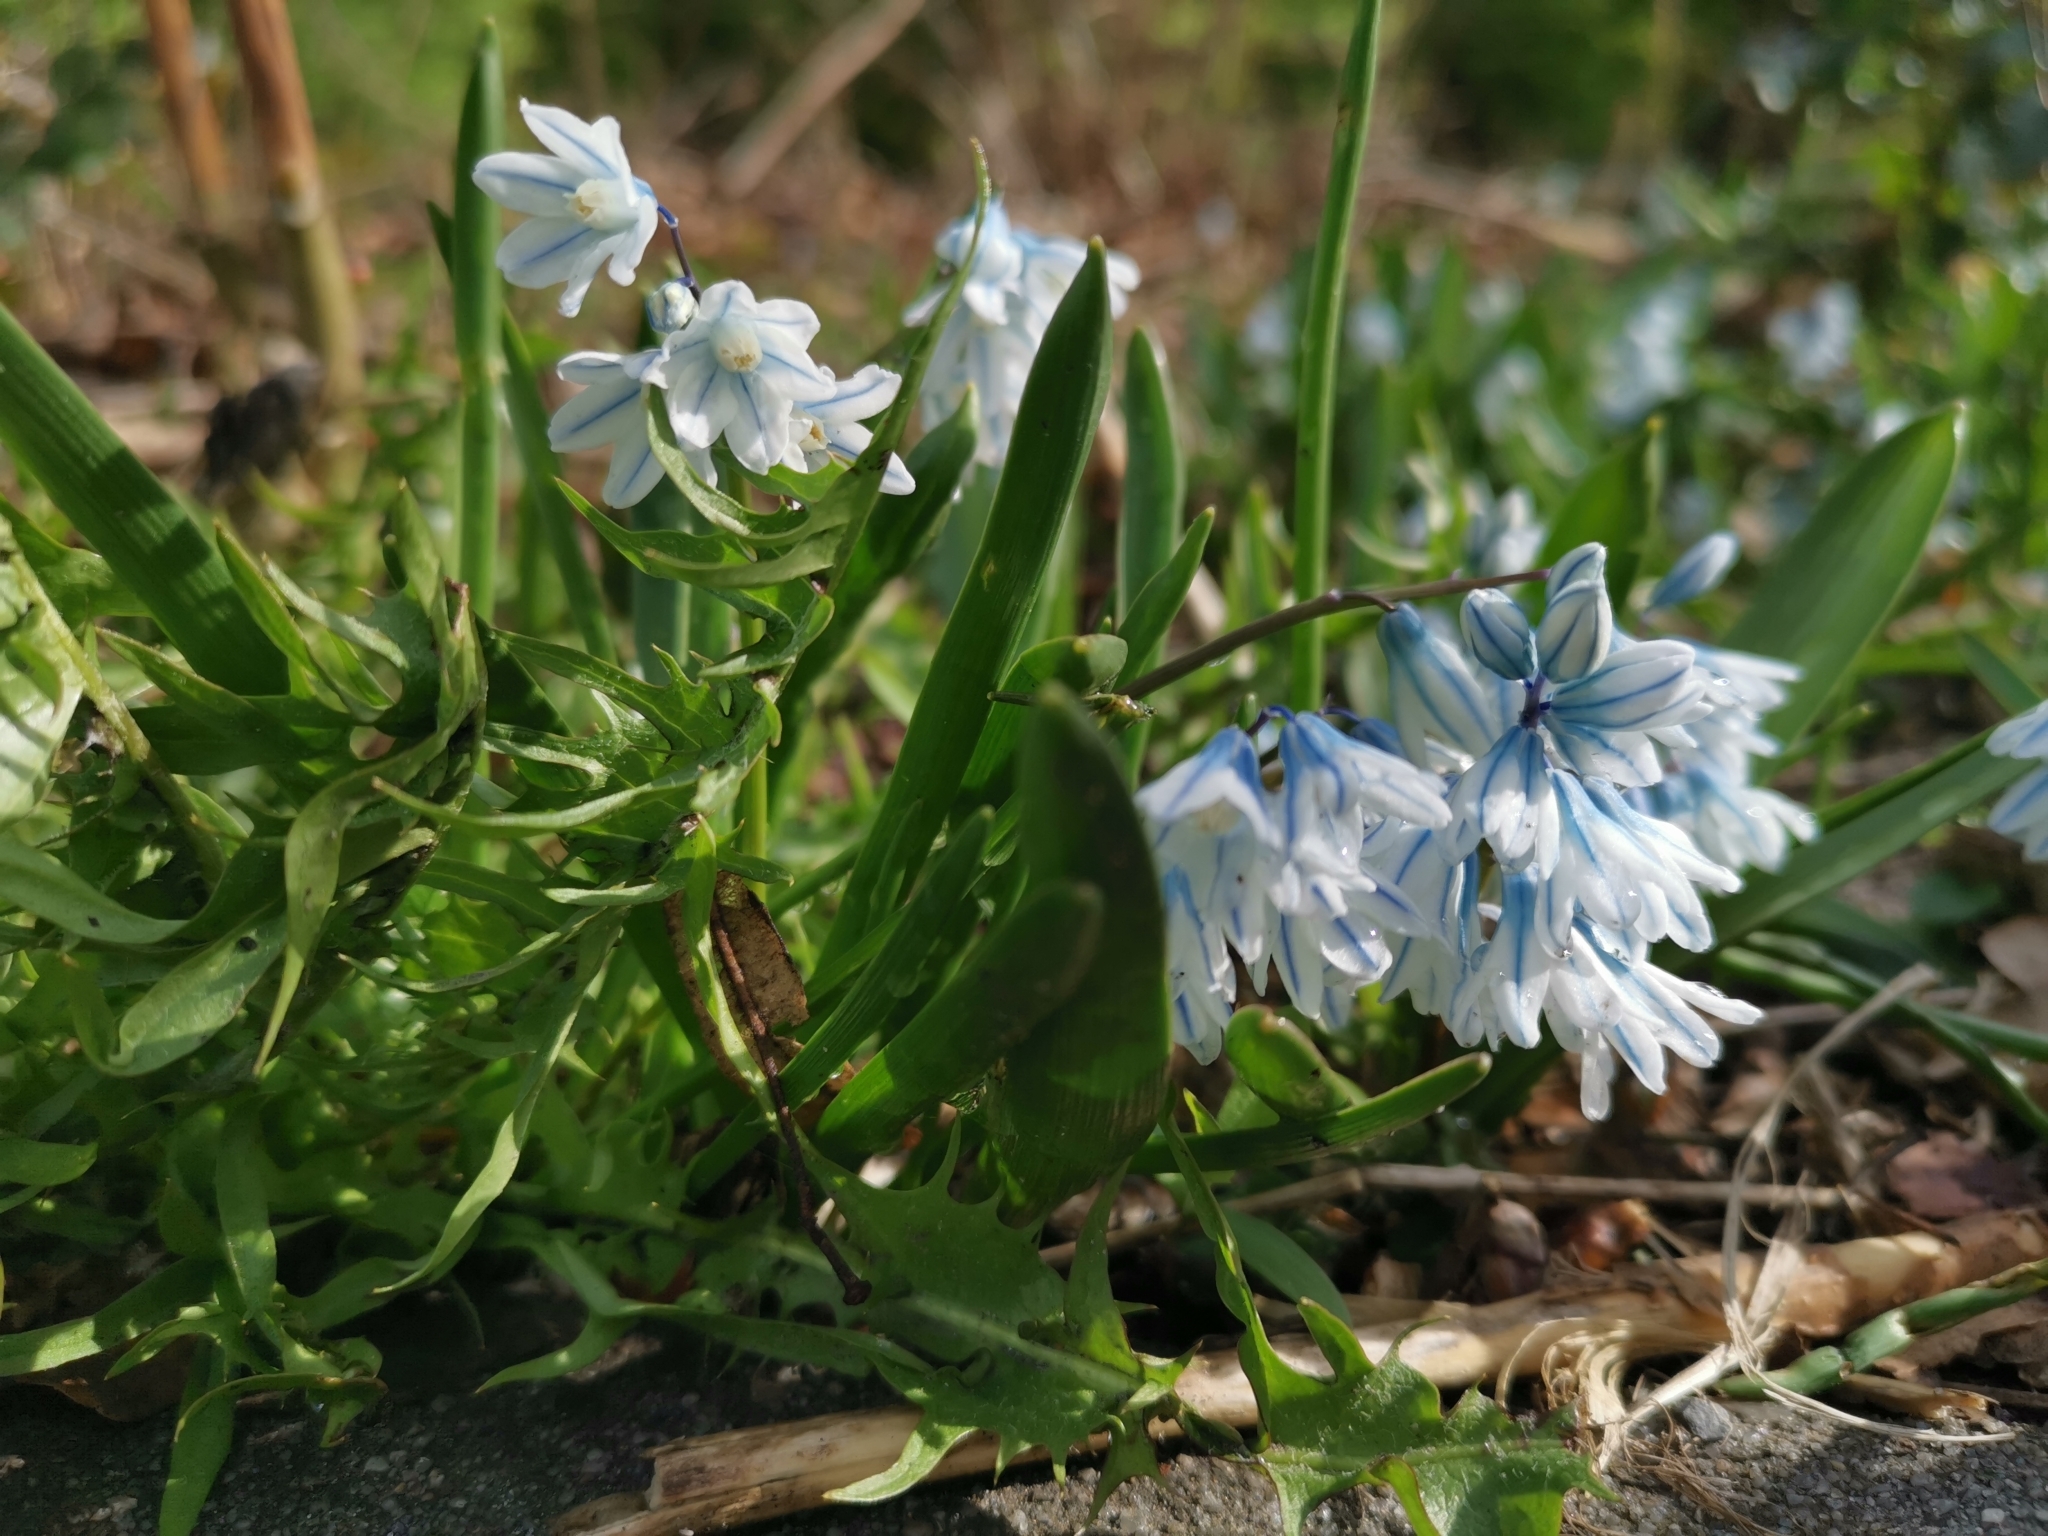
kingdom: Plantae
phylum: Tracheophyta
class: Liliopsida
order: Asparagales
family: Asparagaceae
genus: Puschkinia
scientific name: Puschkinia scilloides
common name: Striped squill
